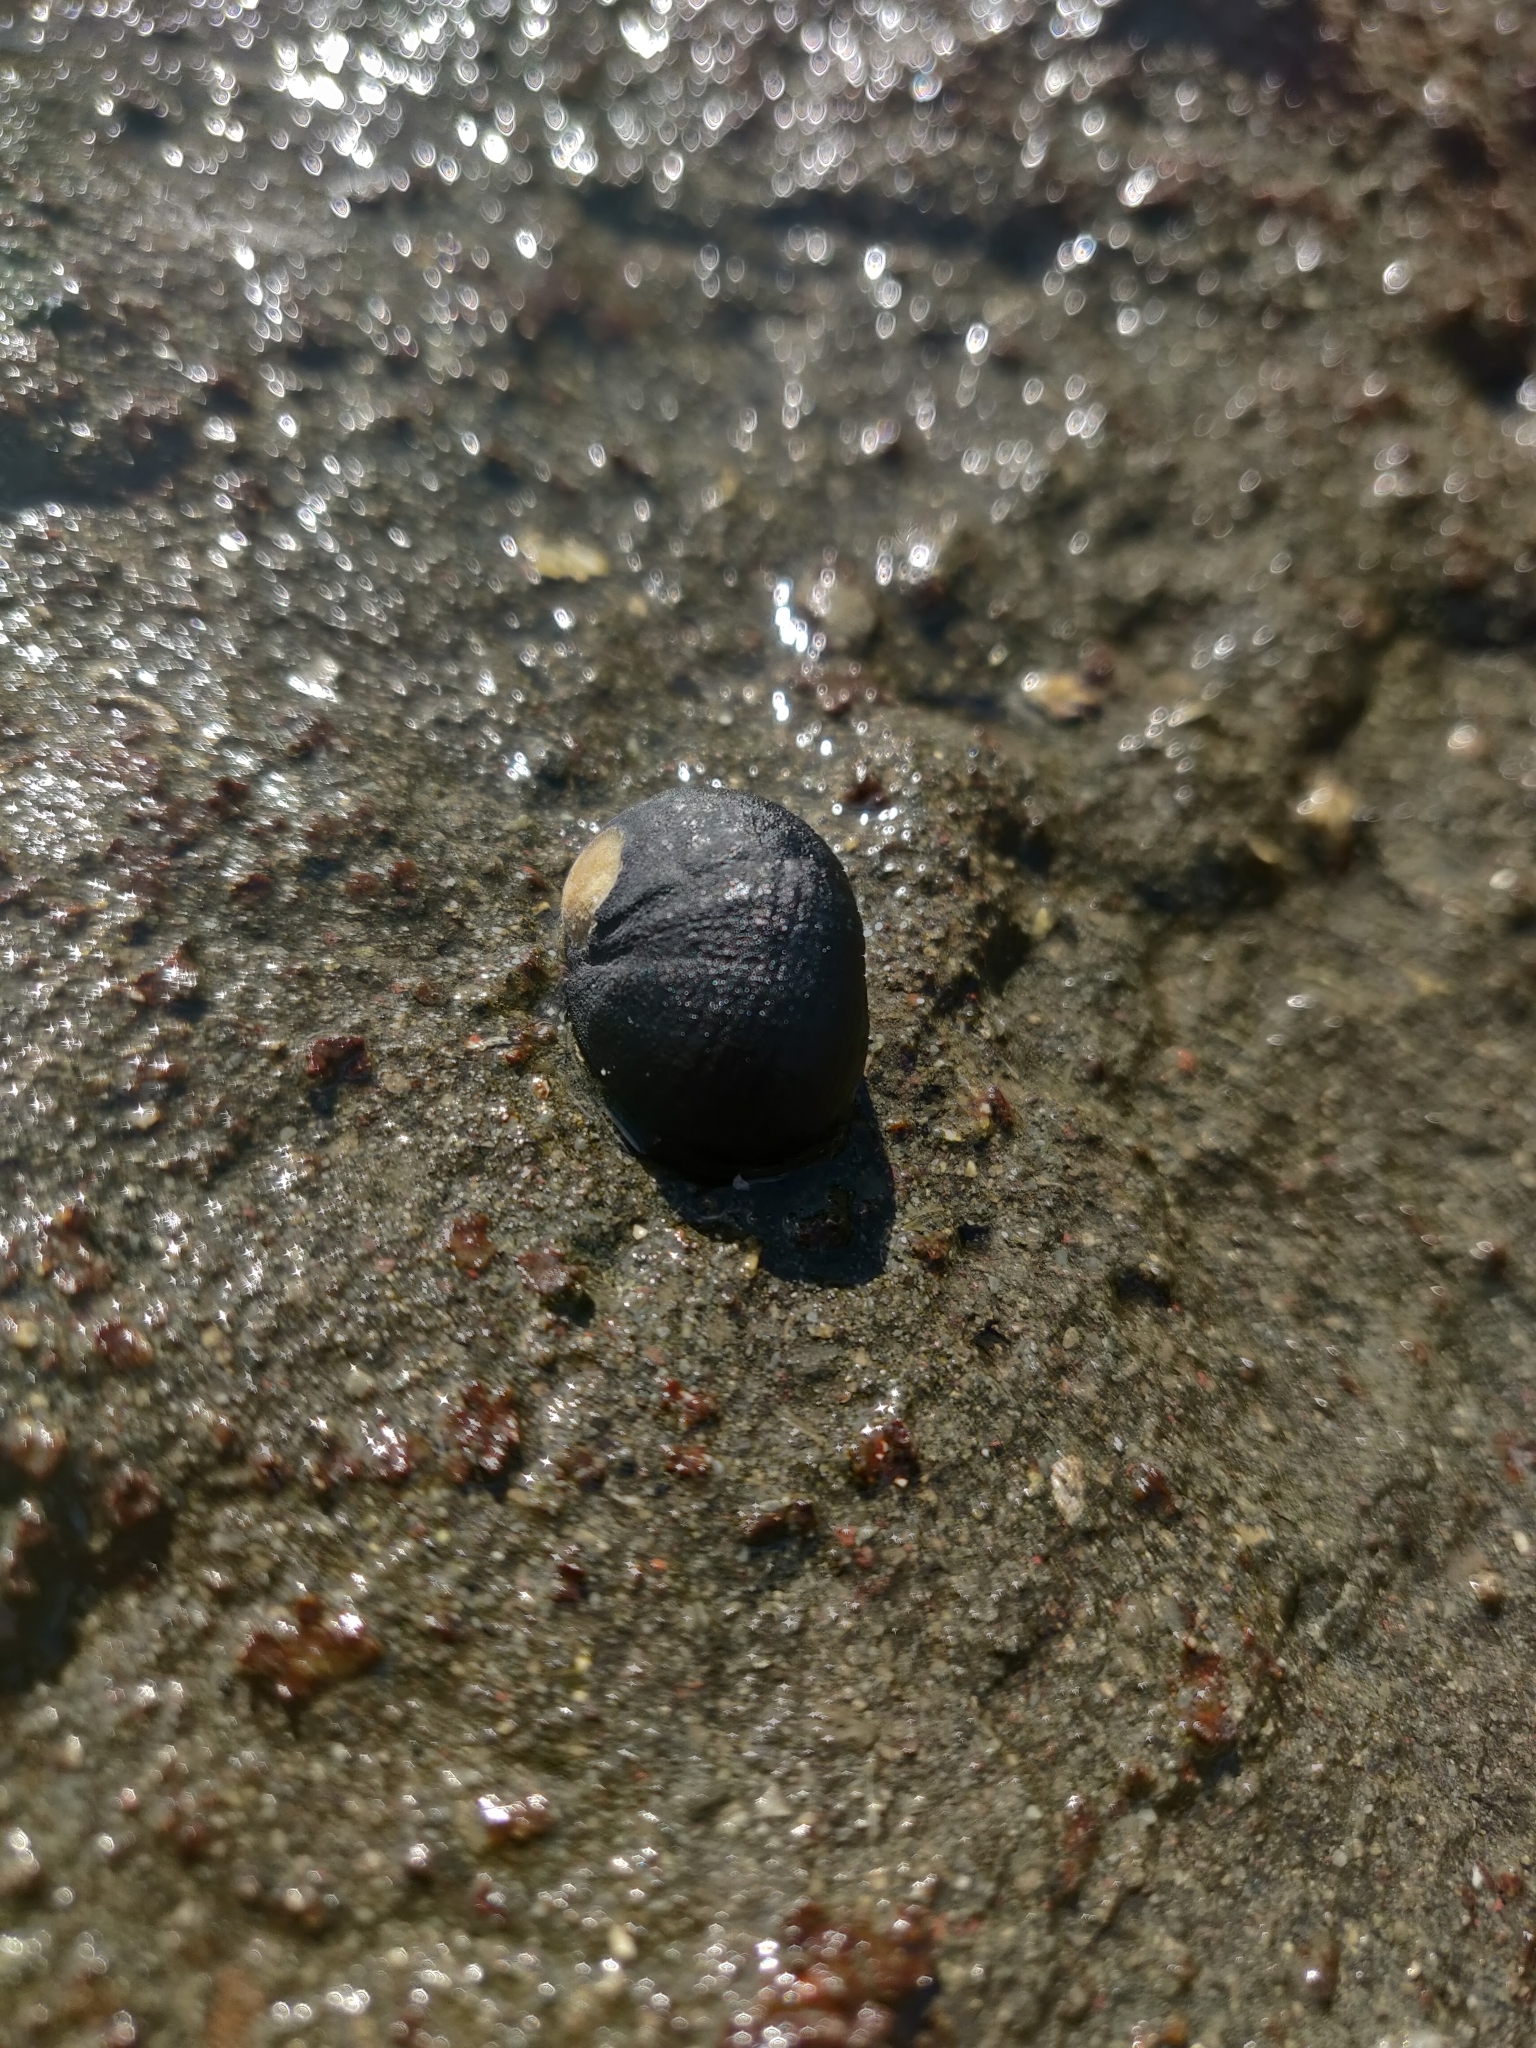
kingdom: Animalia
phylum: Mollusca
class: Gastropoda
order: Cycloneritida
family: Neritidae
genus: Nerita
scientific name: Nerita melanotragus
